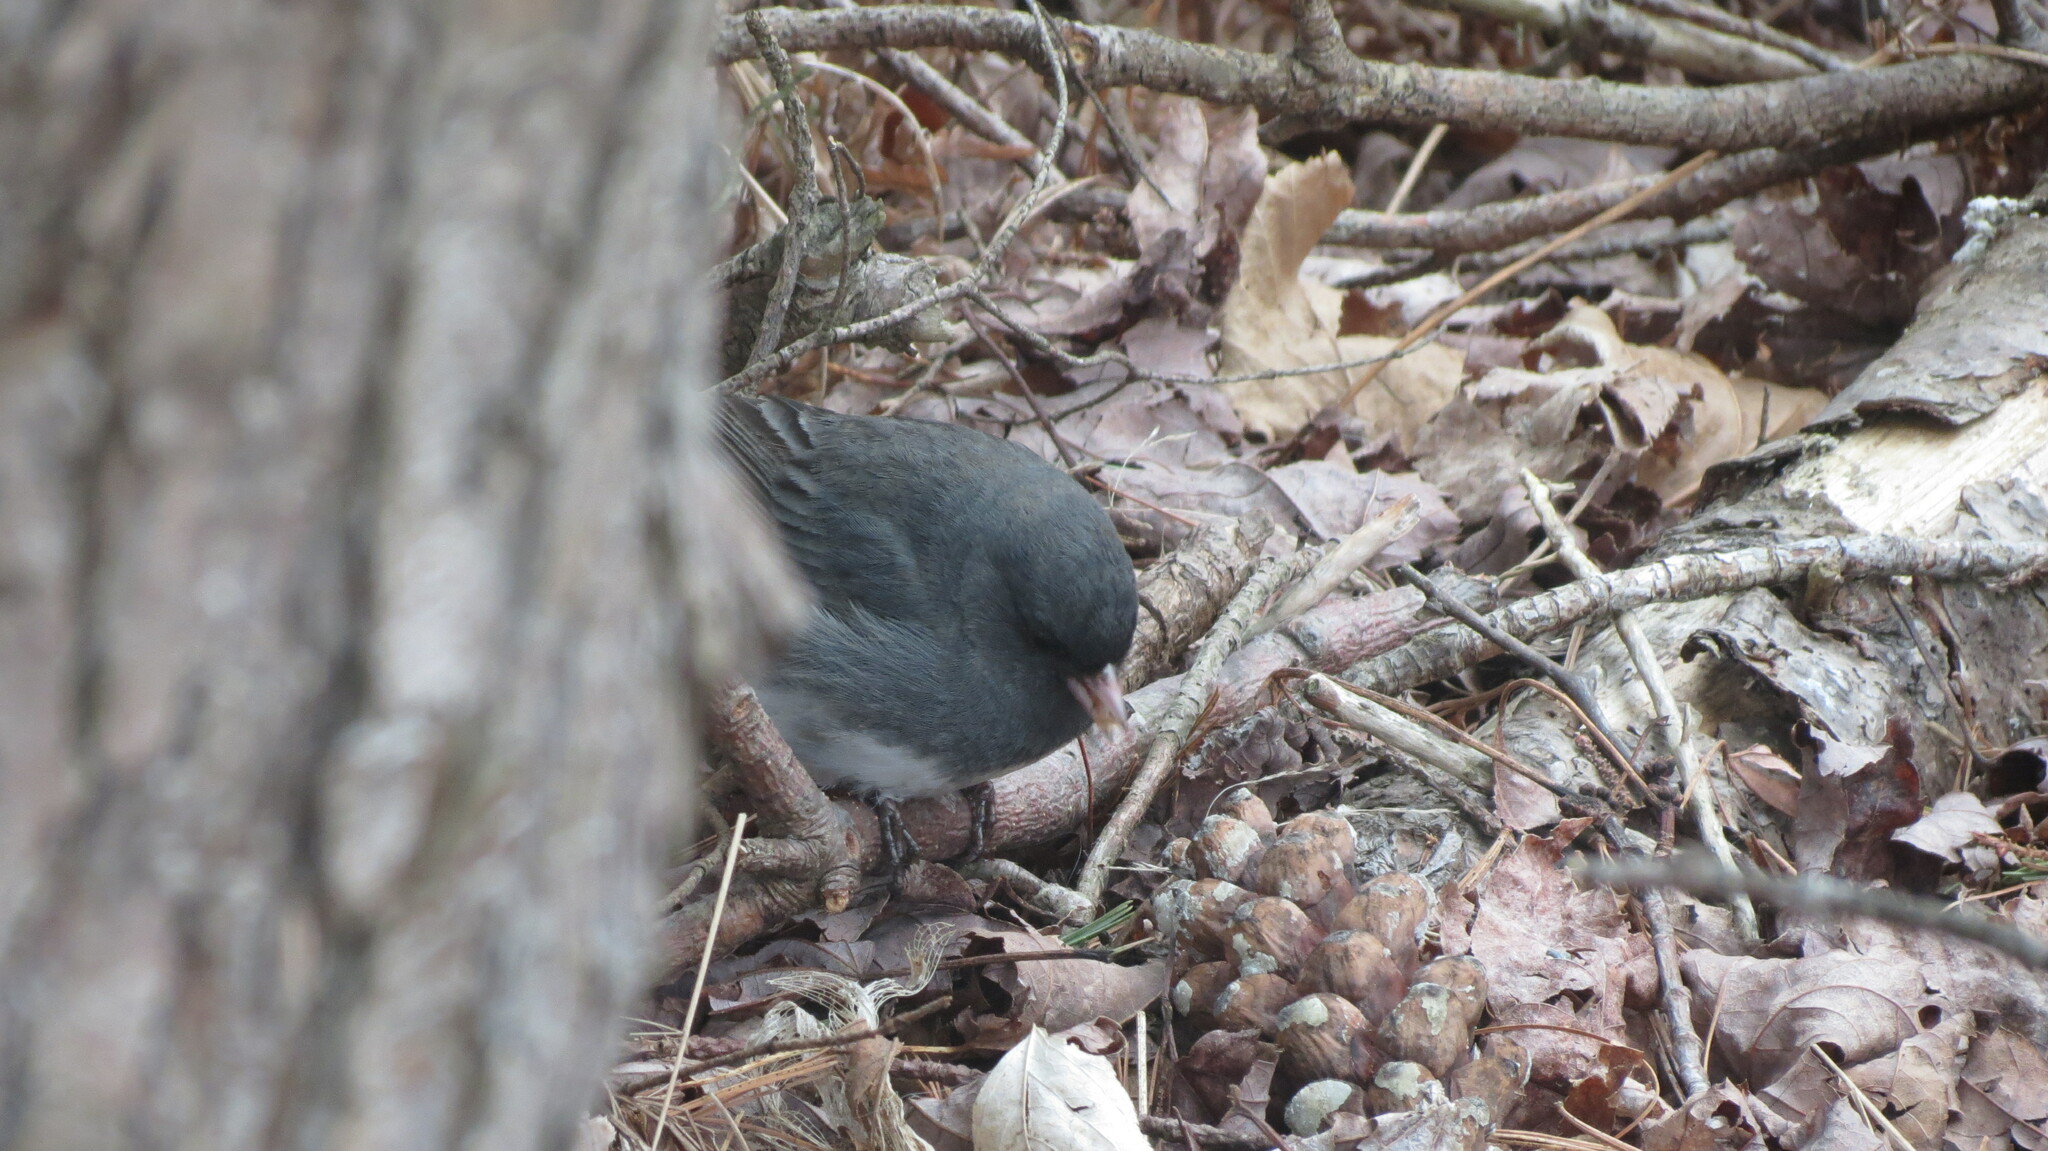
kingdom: Animalia
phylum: Chordata
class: Aves
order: Passeriformes
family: Passerellidae
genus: Junco
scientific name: Junco hyemalis
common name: Dark-eyed junco
